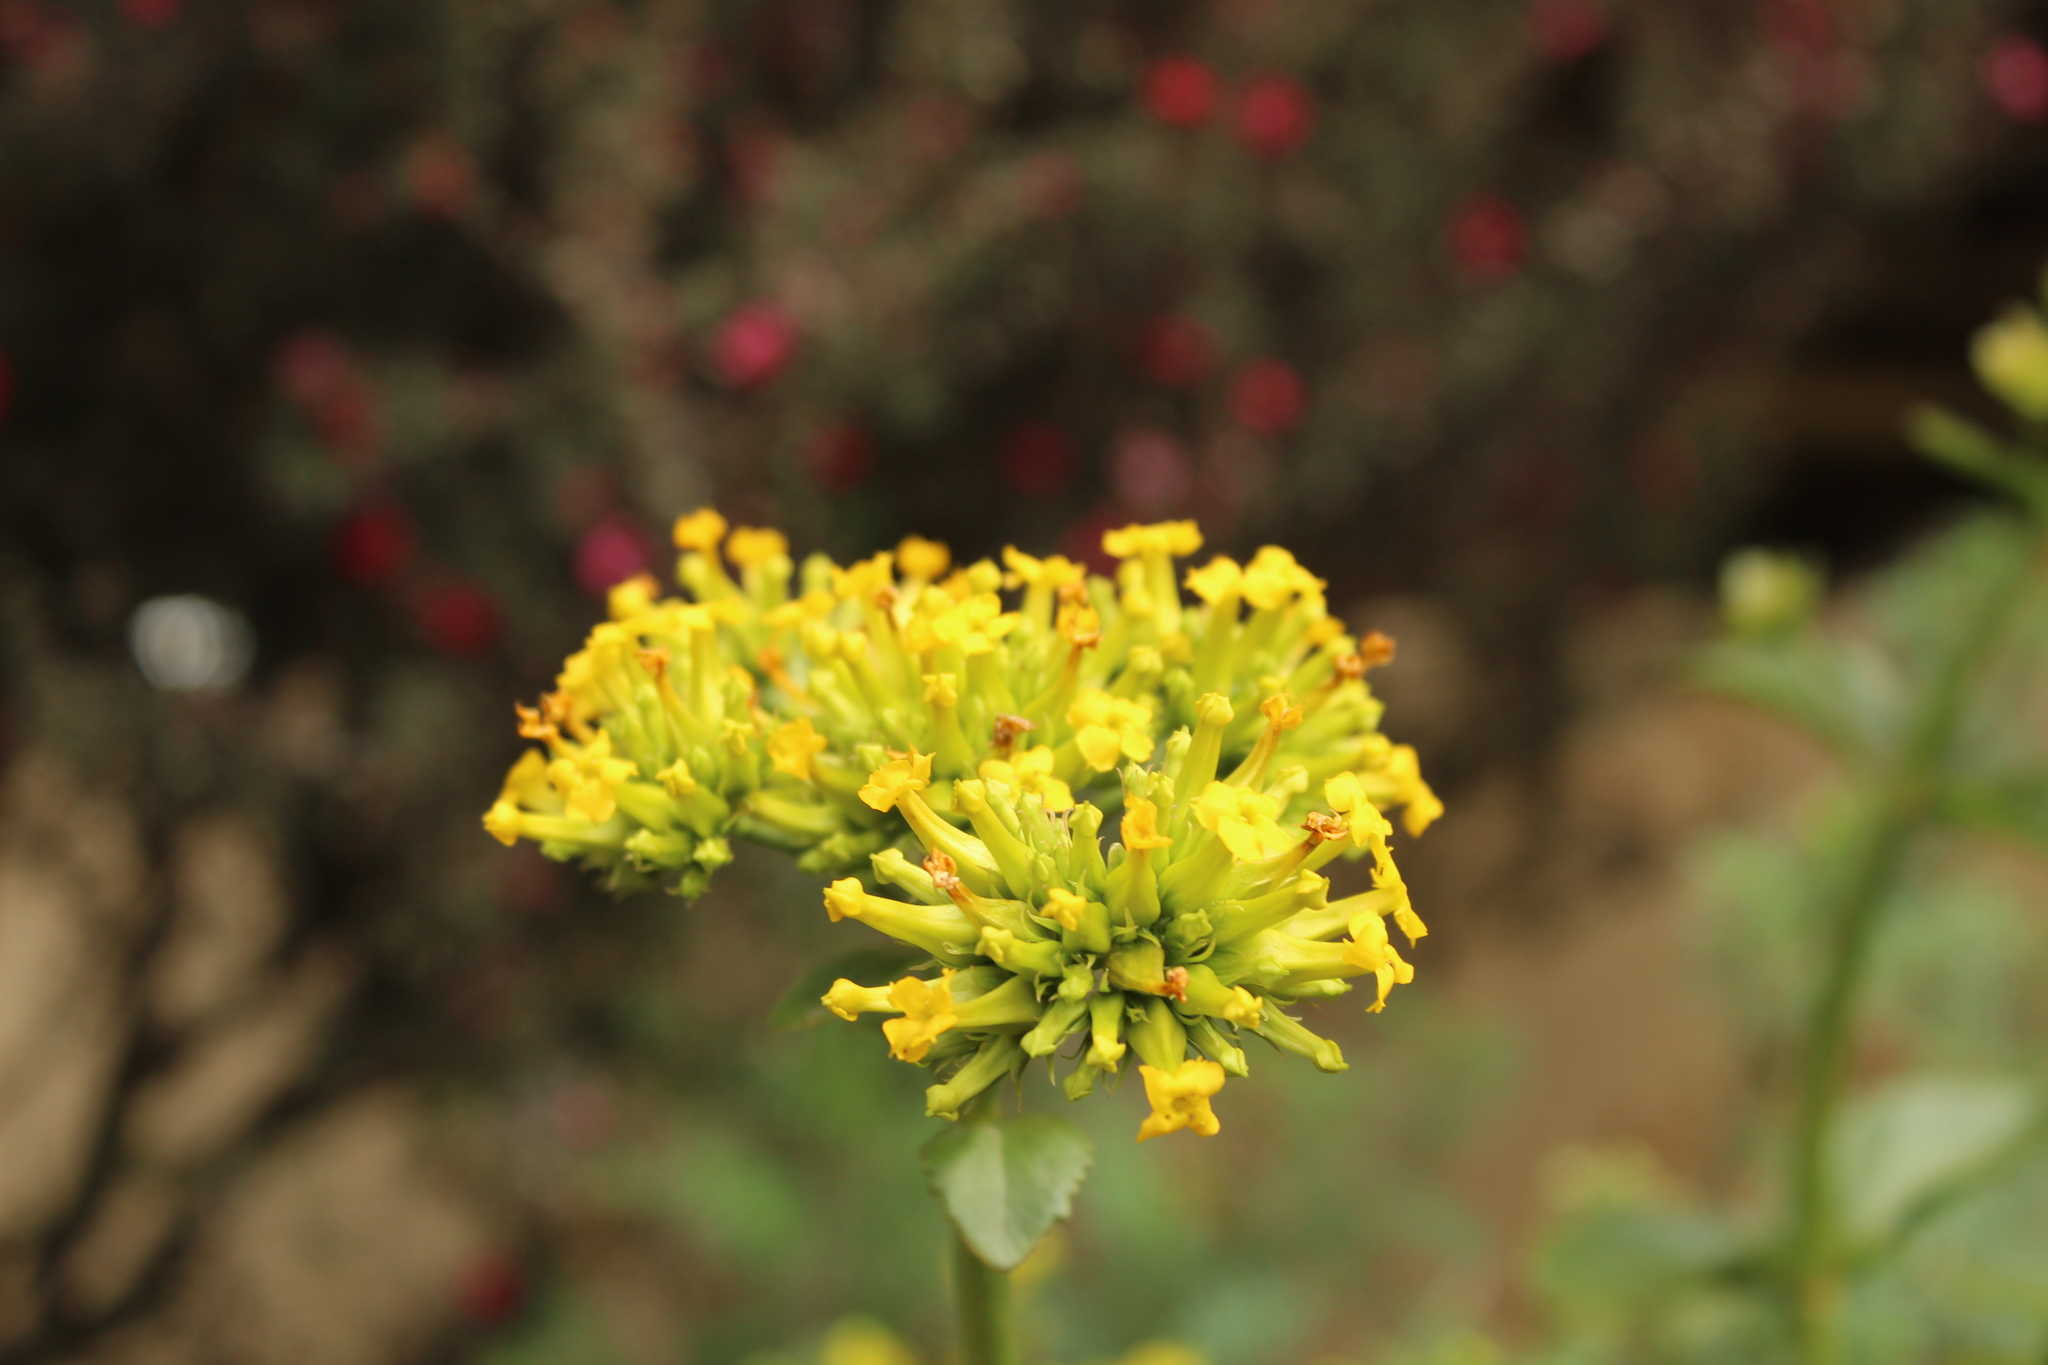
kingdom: Plantae
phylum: Tracheophyta
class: Magnoliopsida
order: Saxifragales
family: Crassulaceae
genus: Kalanchoe
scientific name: Kalanchoe densiflora
